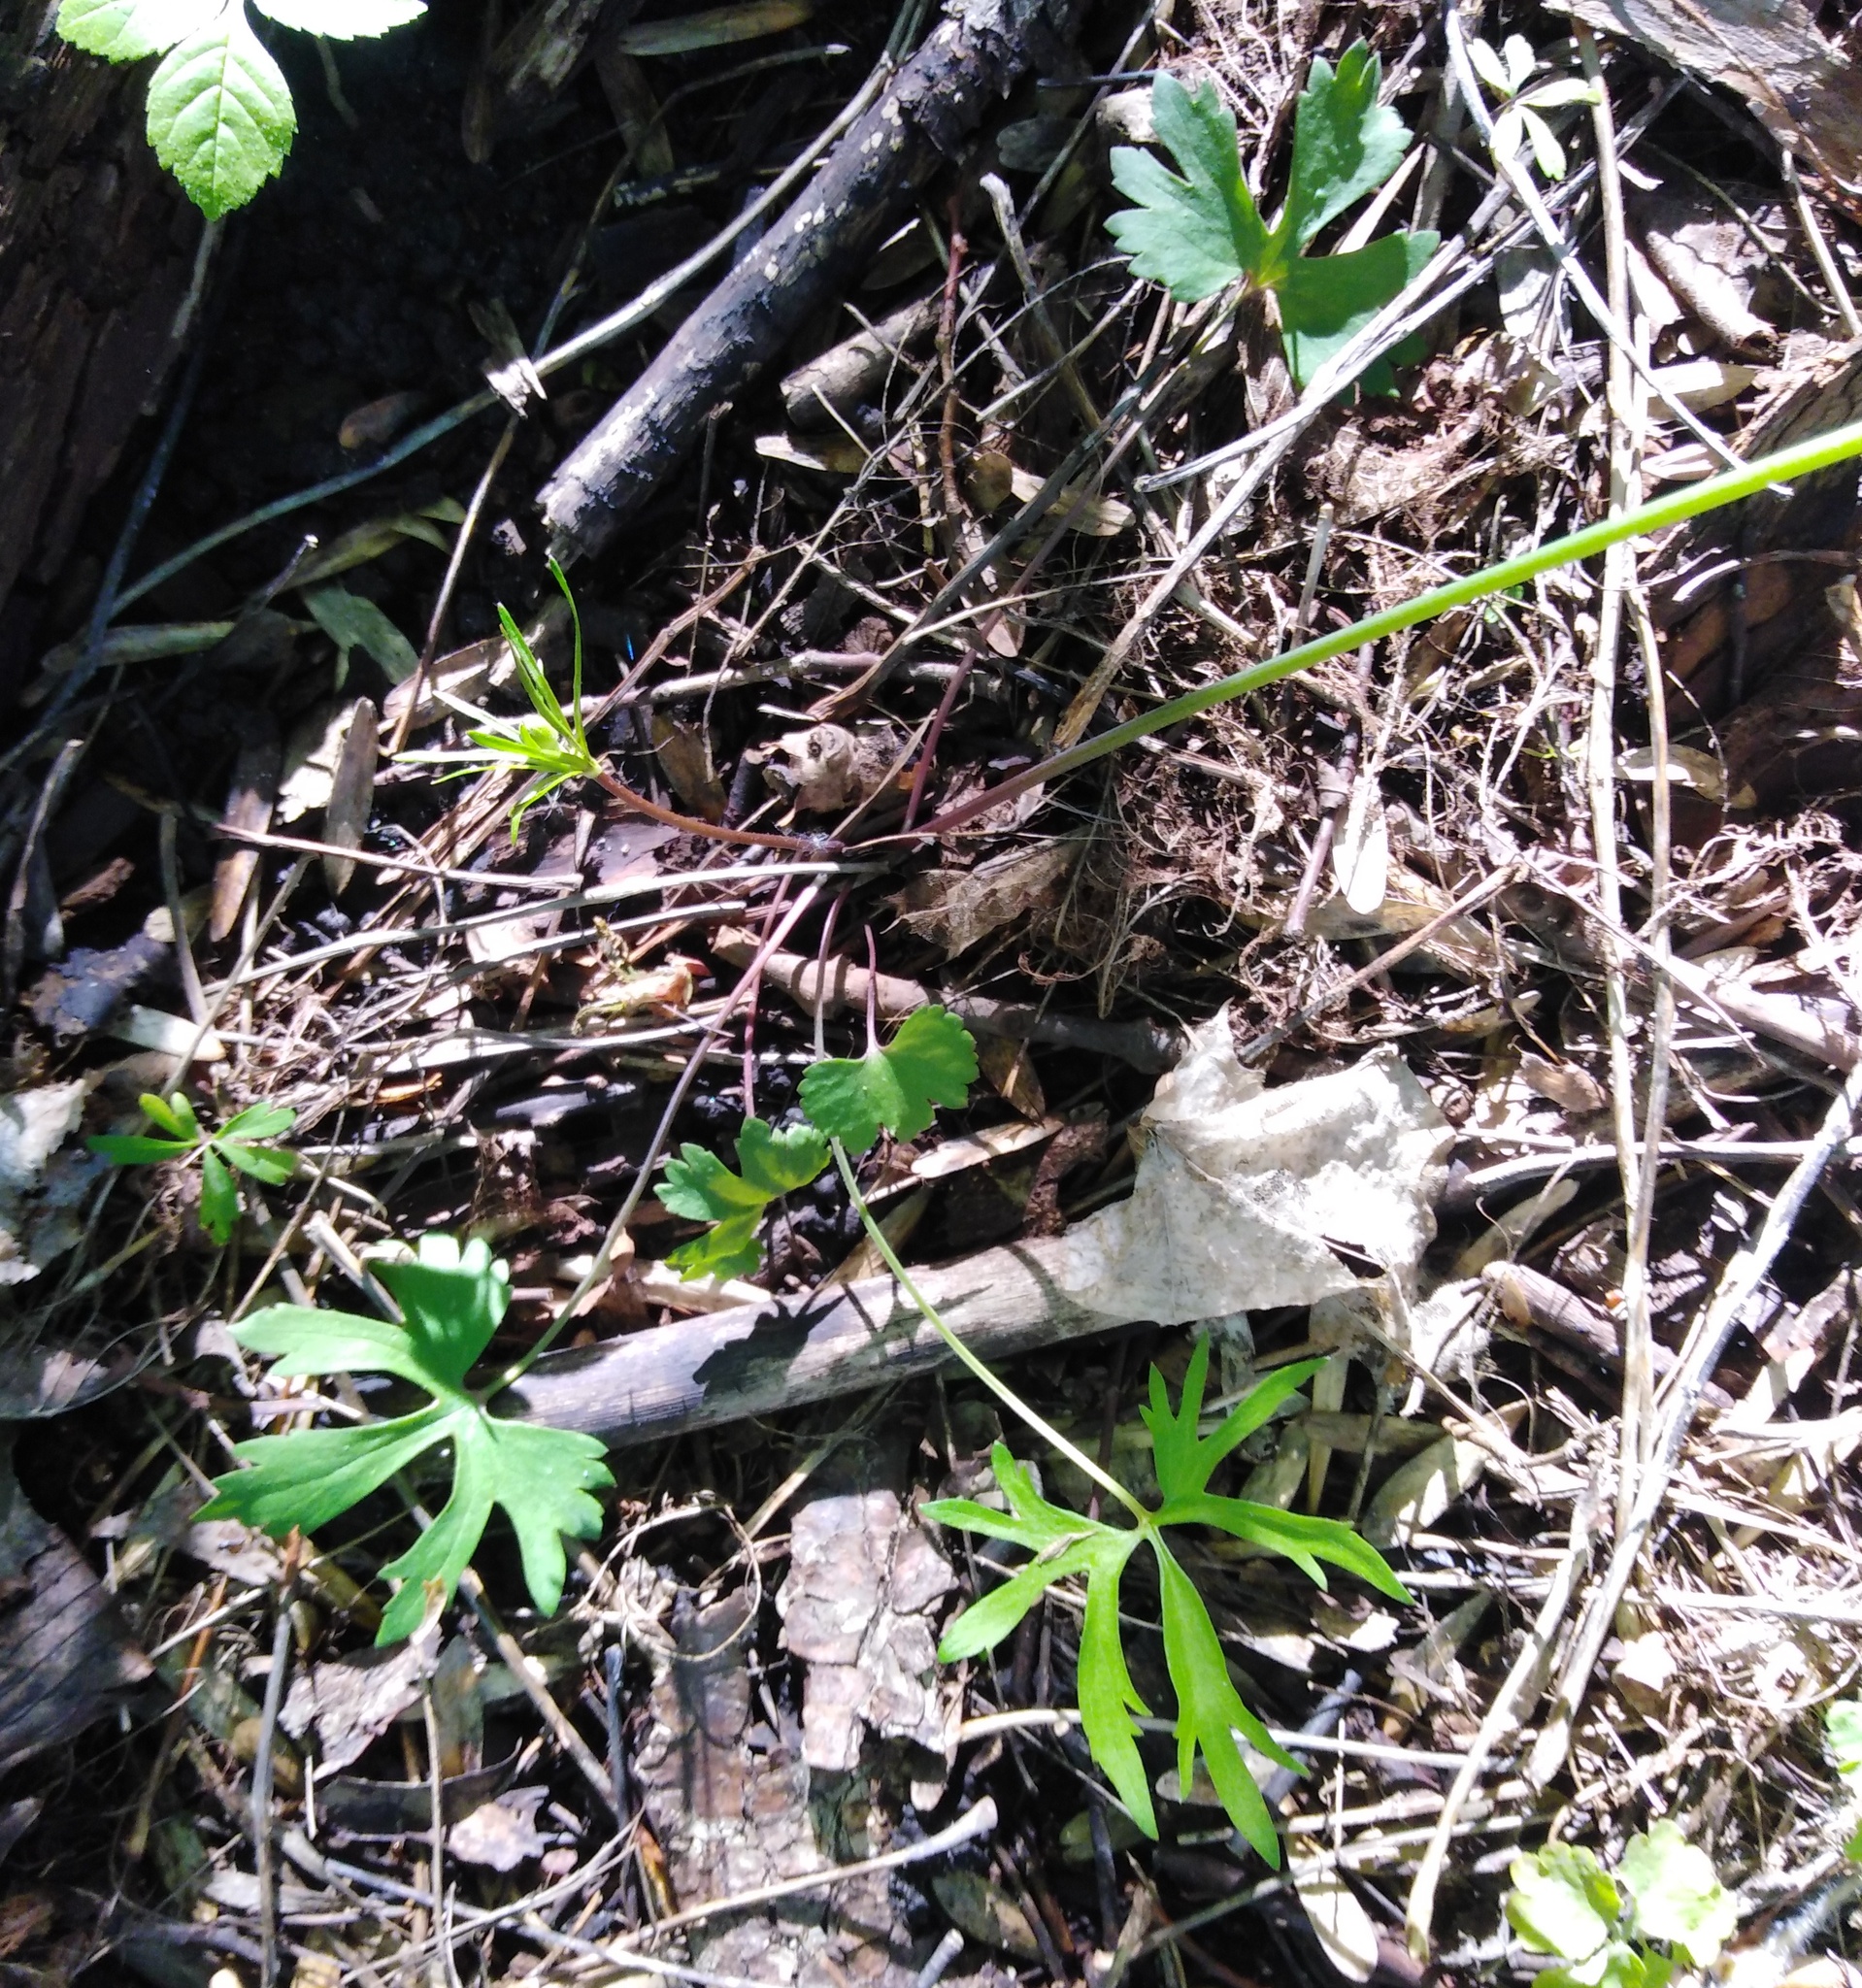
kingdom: Plantae
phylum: Tracheophyta
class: Magnoliopsida
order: Ranunculales
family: Ranunculaceae
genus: Ranunculus
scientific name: Ranunculus auricomus
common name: Goldilocks buttercup
